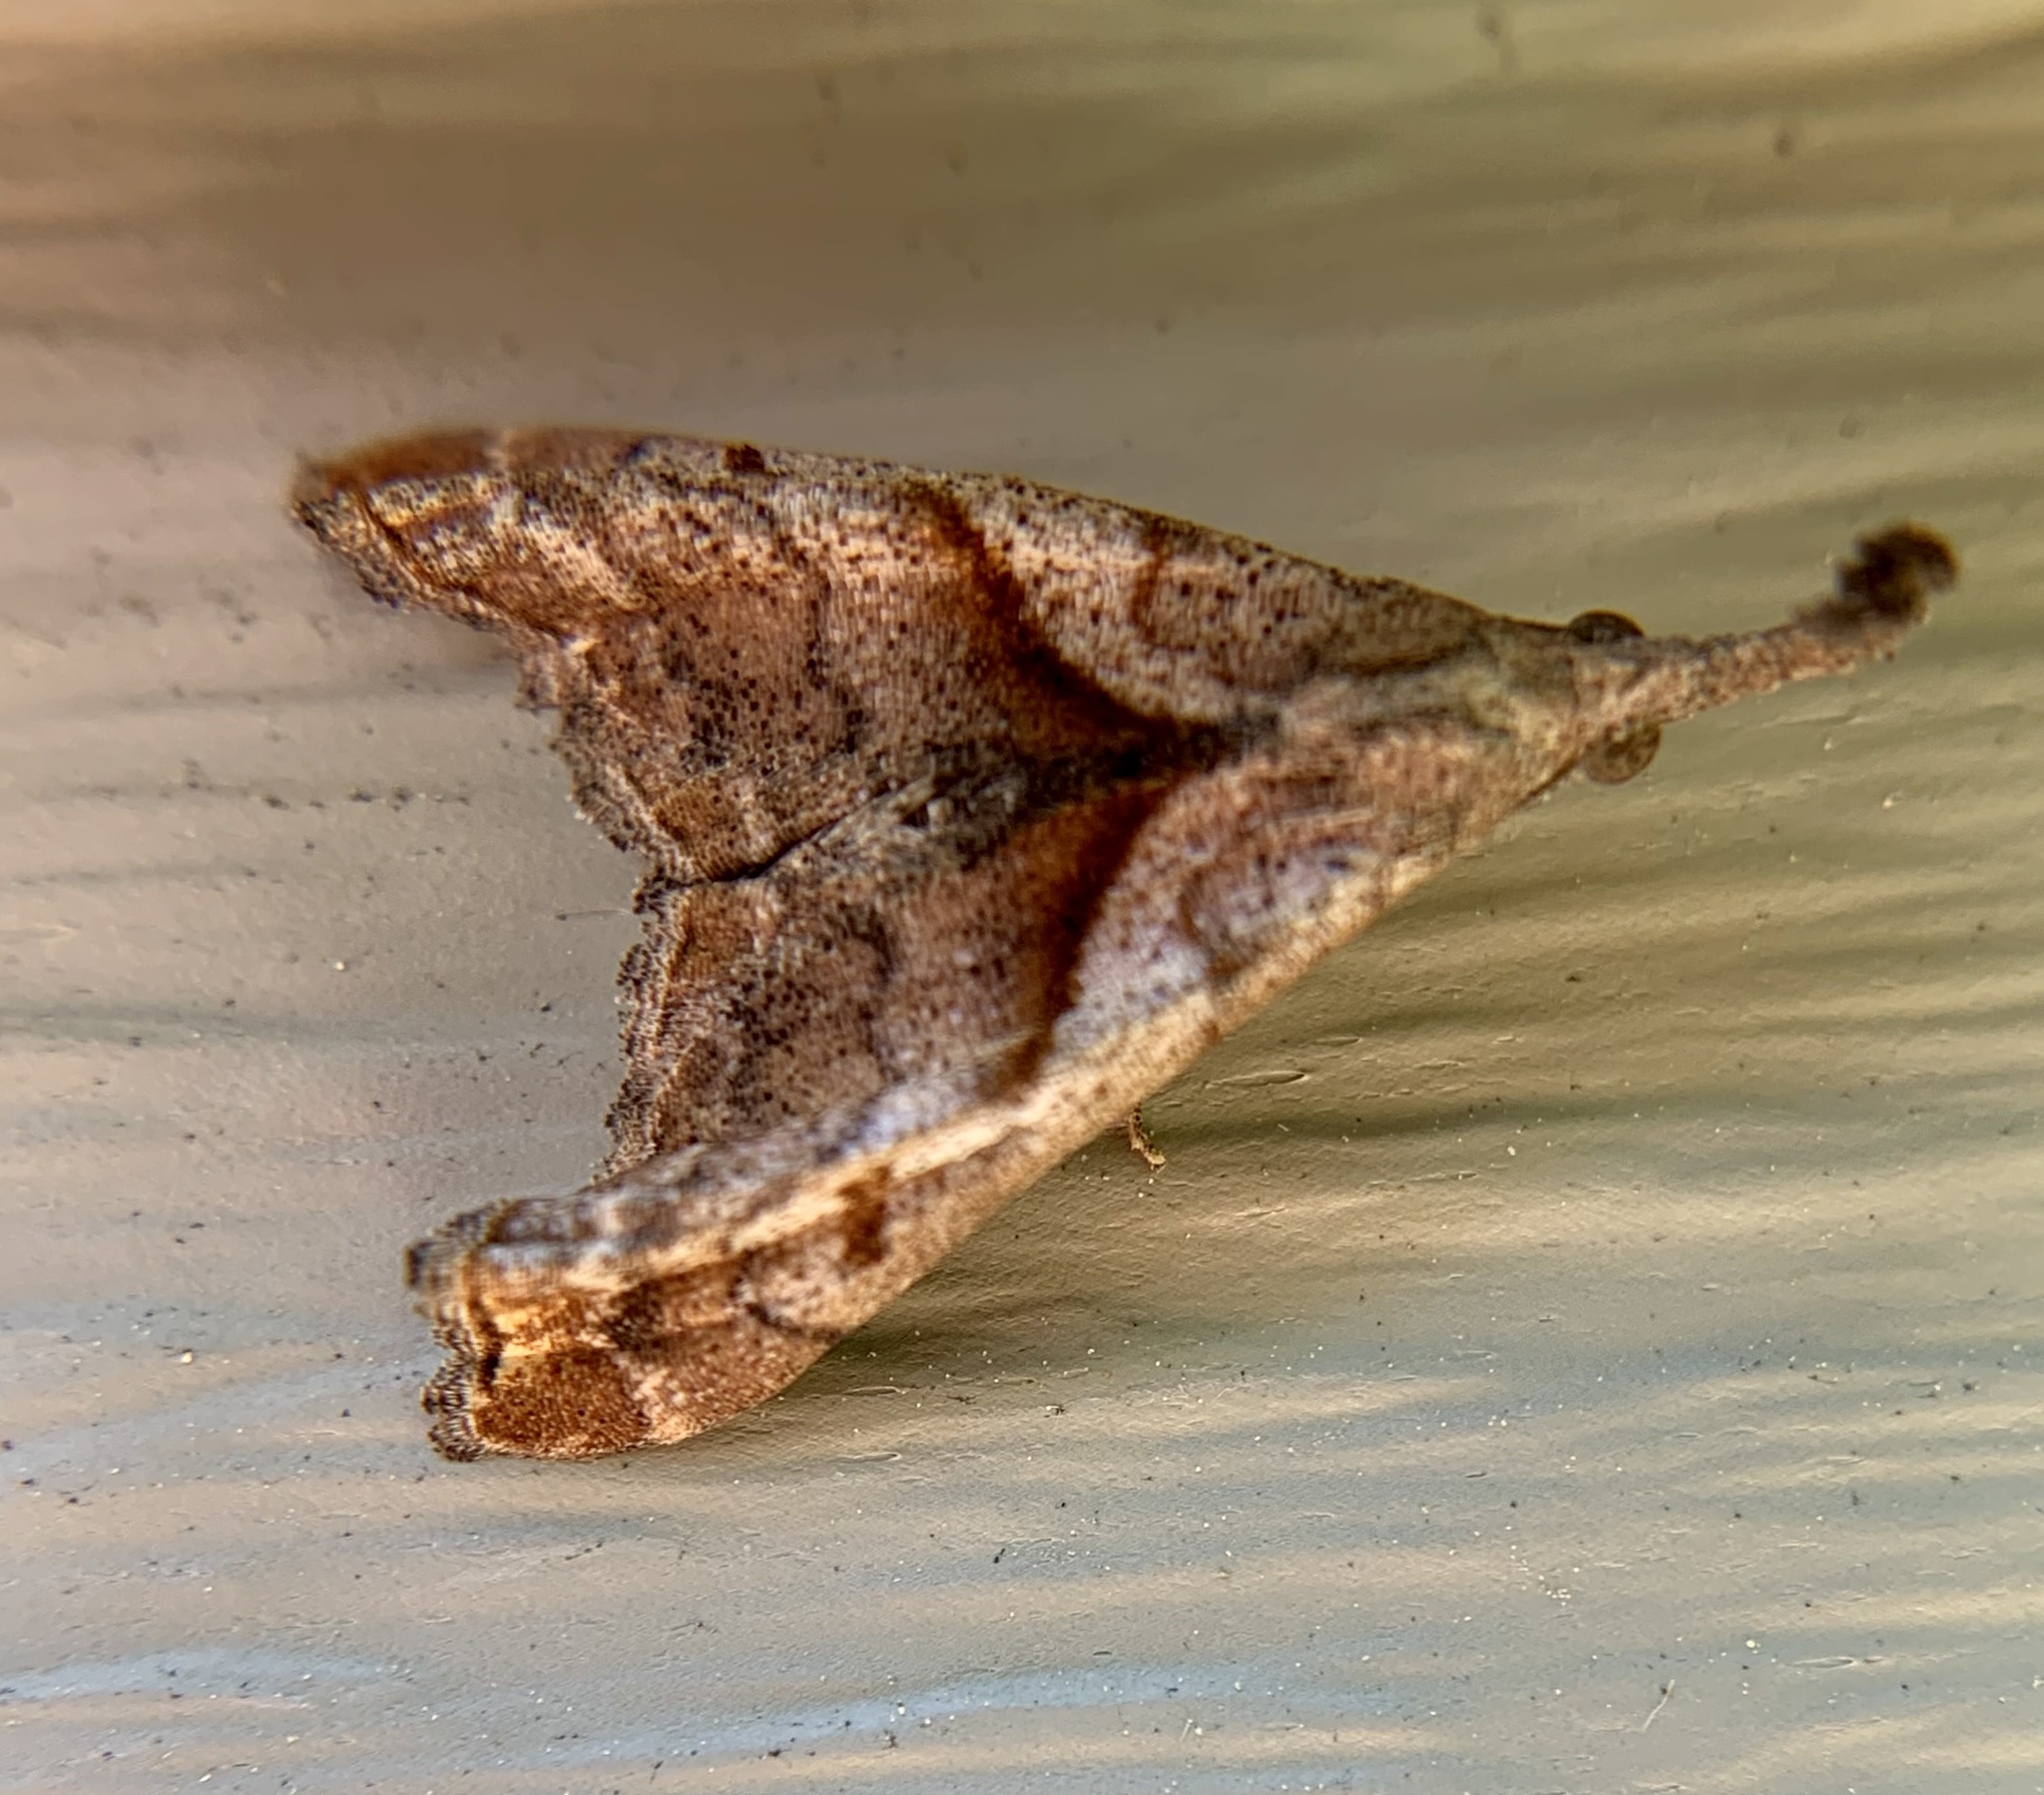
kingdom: Animalia
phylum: Arthropoda
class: Insecta
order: Lepidoptera
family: Erebidae
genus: Palthis
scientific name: Palthis angulalis
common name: Dark-spotted palthis moth
